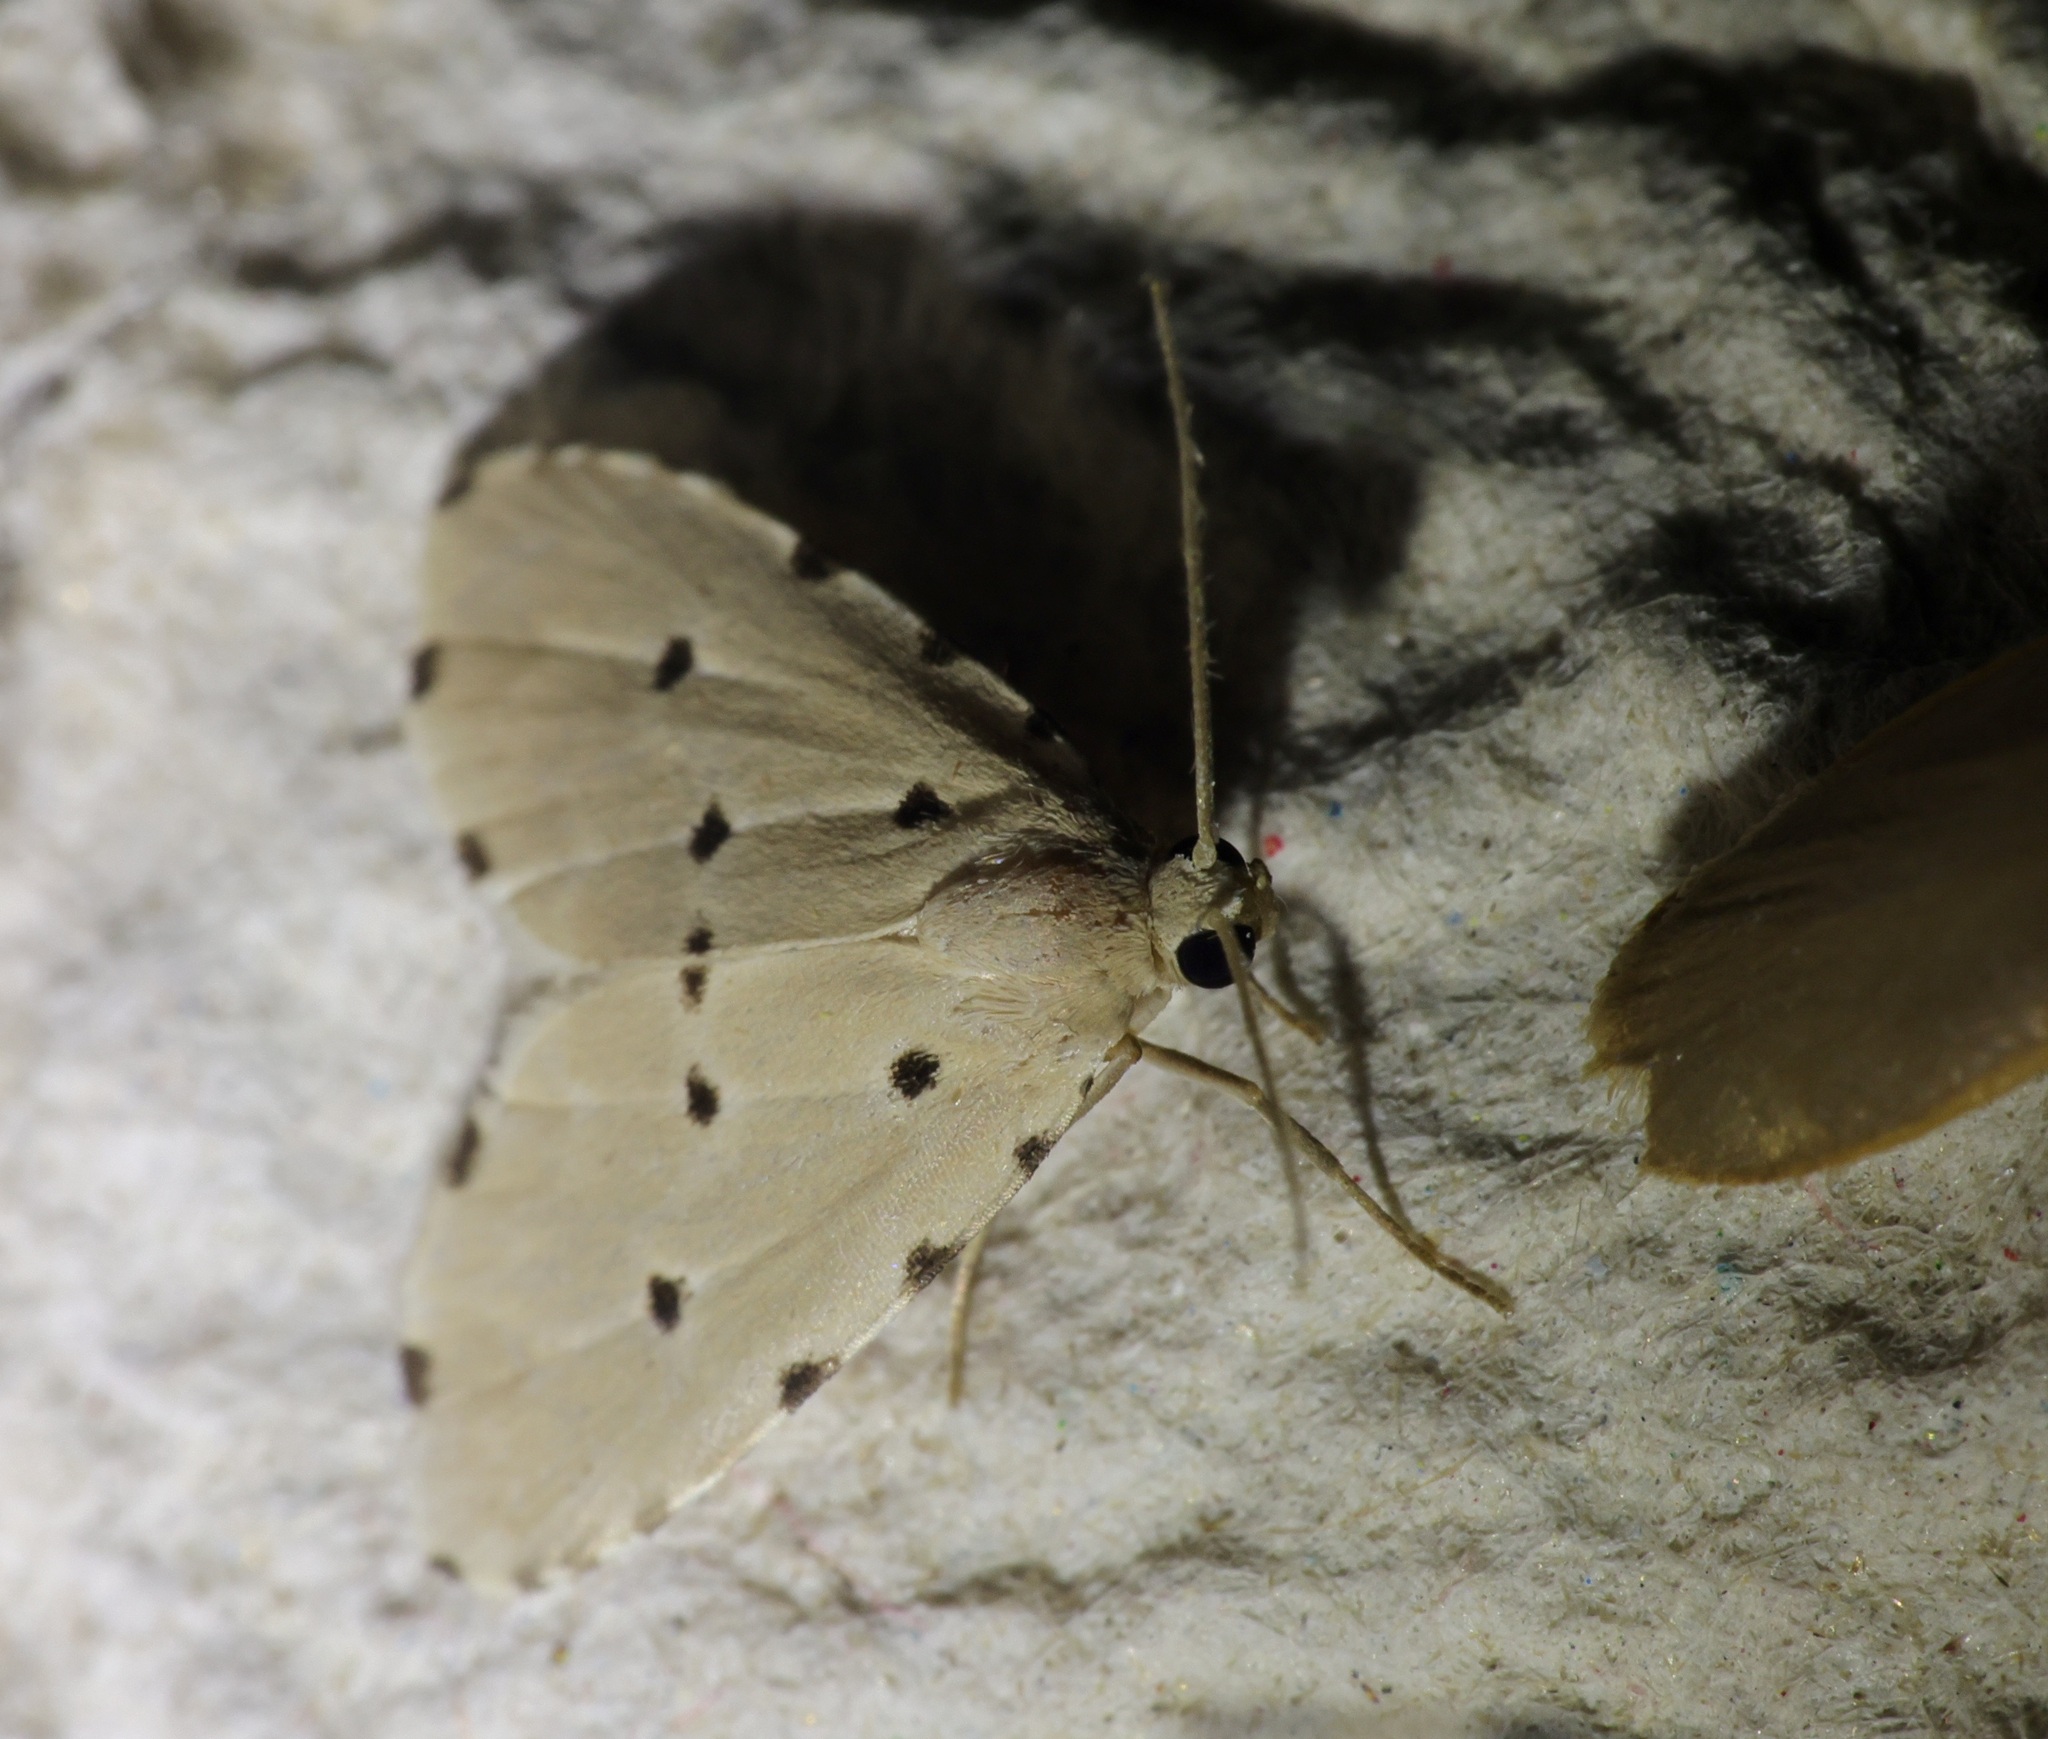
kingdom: Animalia
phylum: Arthropoda
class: Insecta
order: Lepidoptera
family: Noctuidae
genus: Metaemene
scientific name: Metaemene atrigutta
